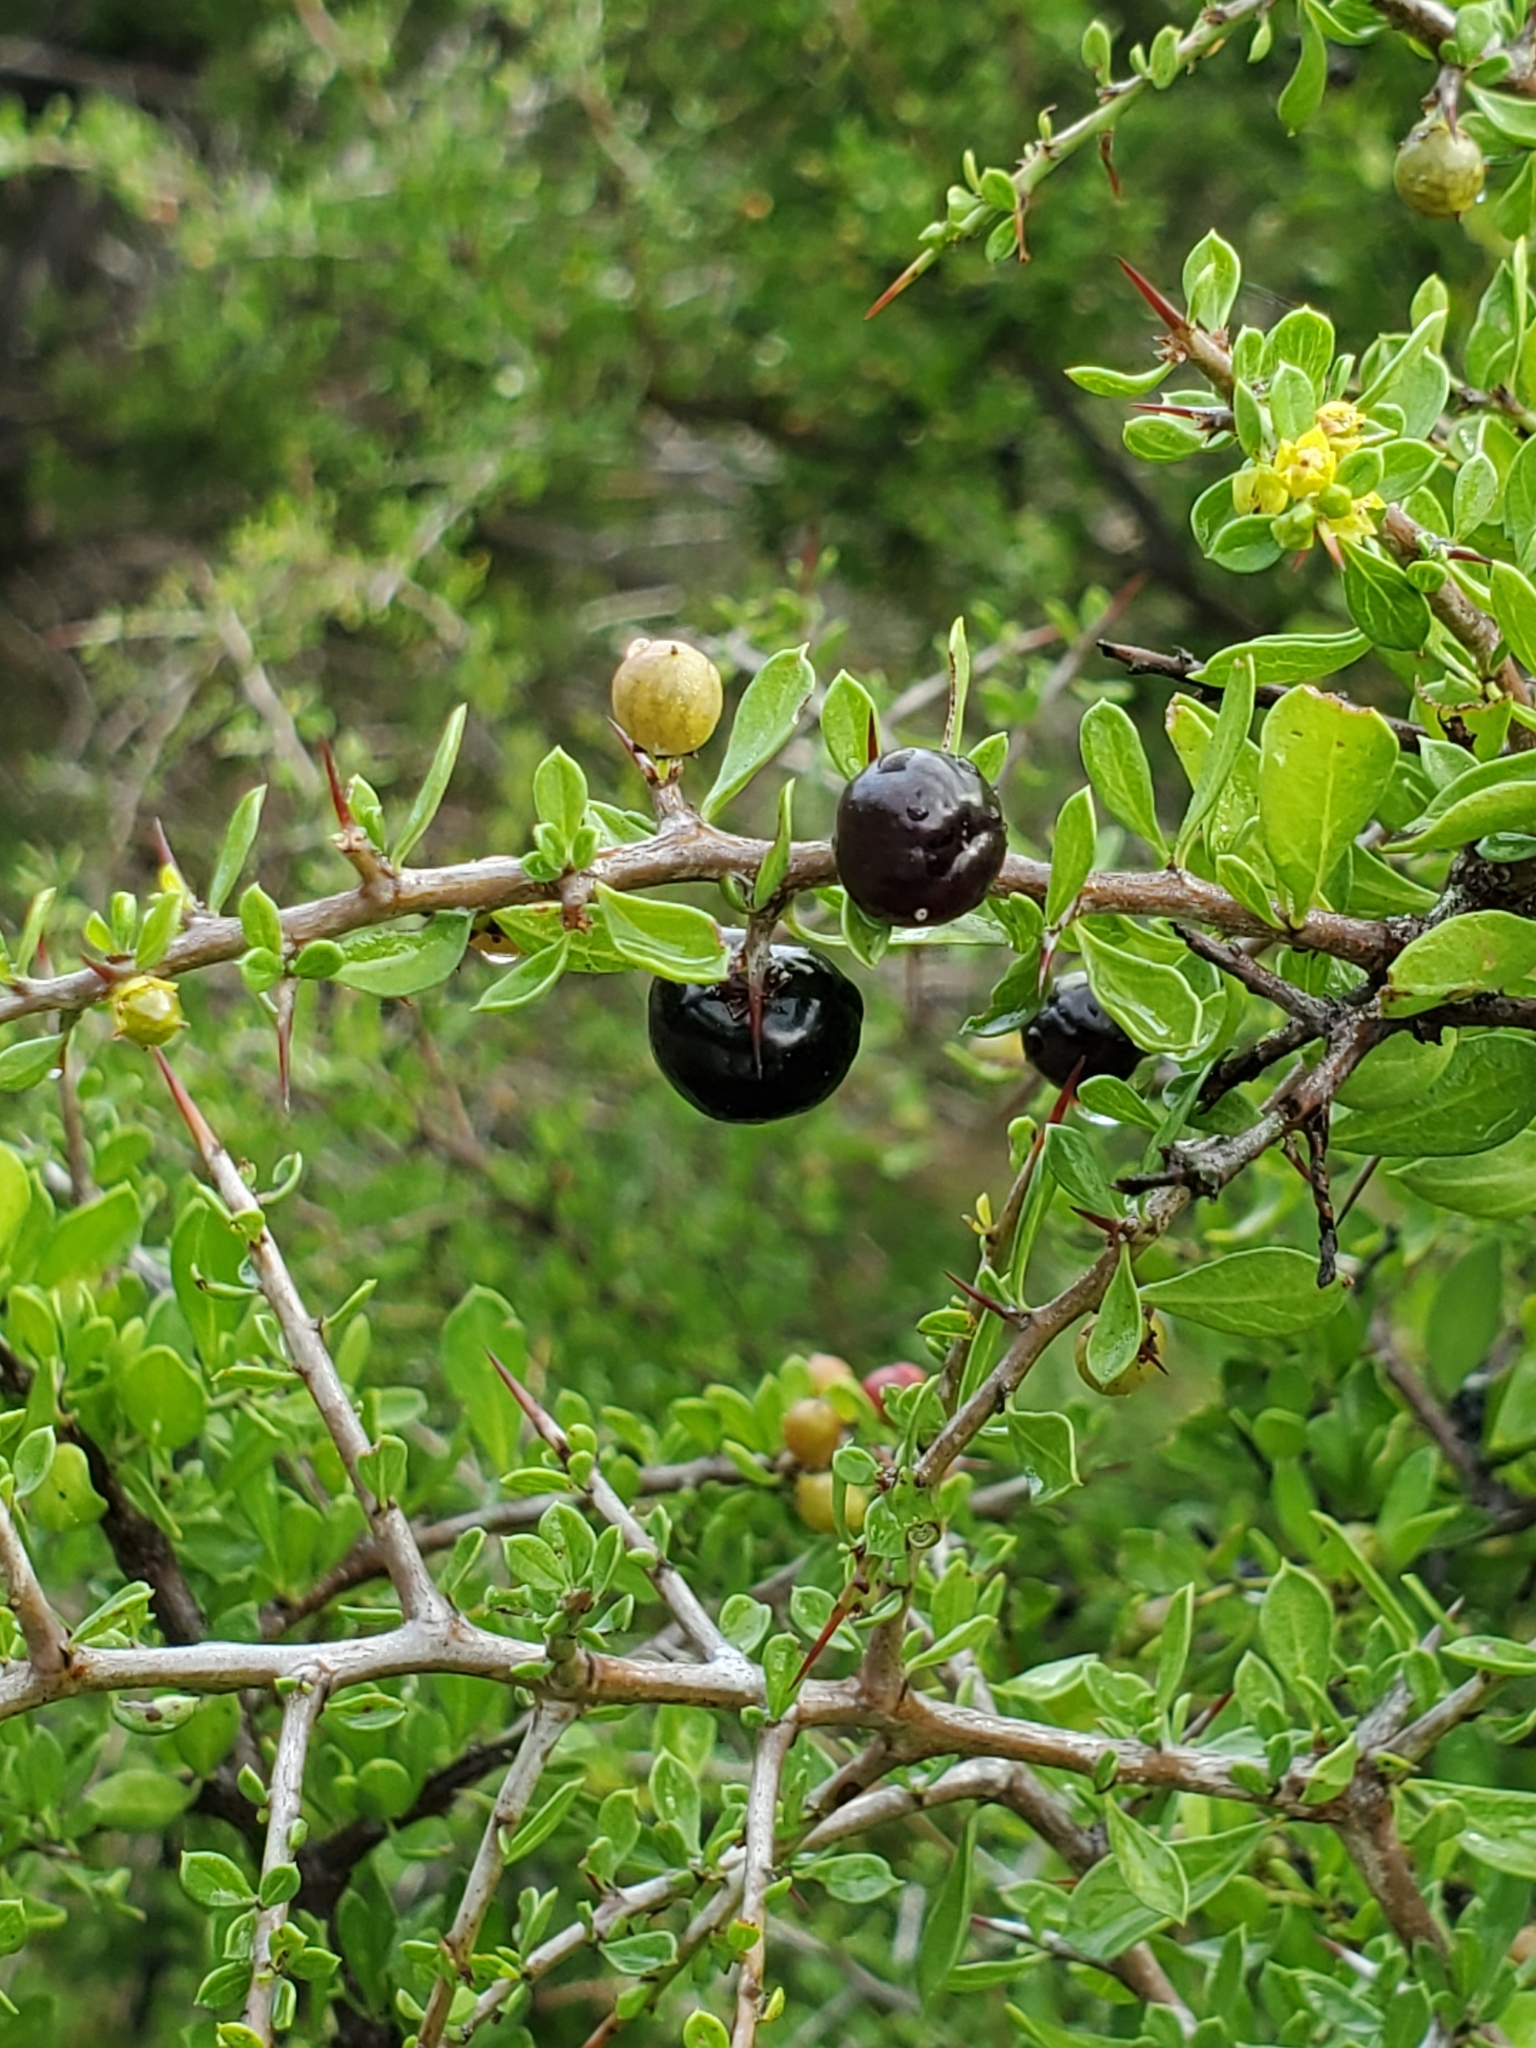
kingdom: Plantae
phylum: Tracheophyta
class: Magnoliopsida
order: Rosales
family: Rhamnaceae
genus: Condalia
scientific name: Condalia viridis
